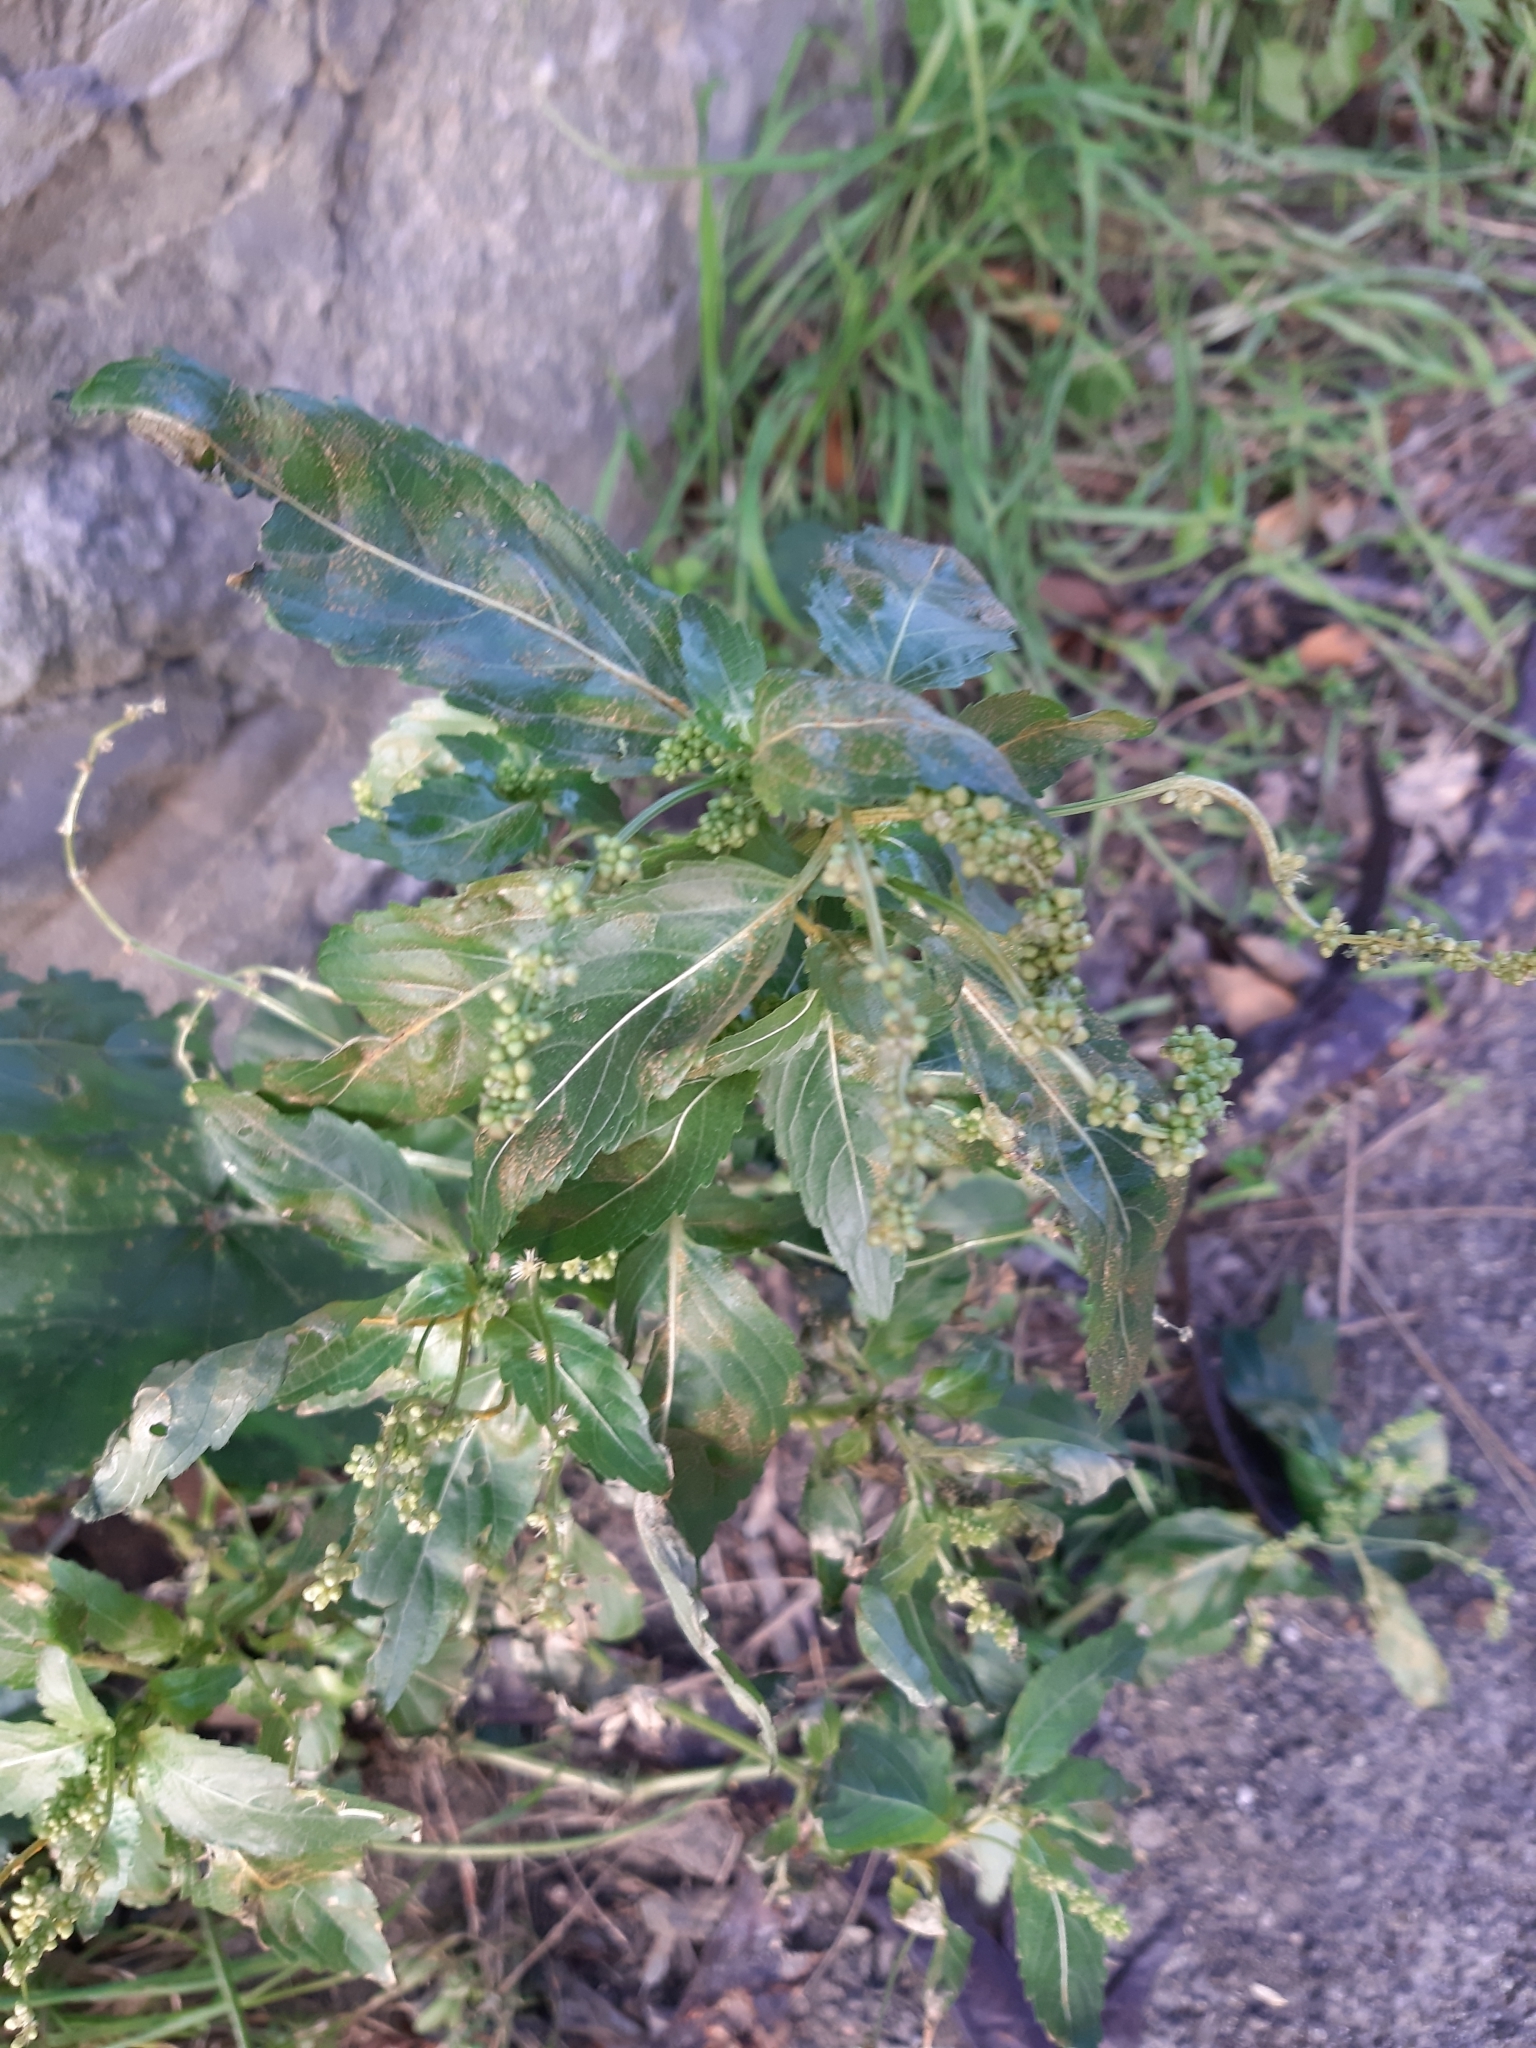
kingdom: Plantae
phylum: Tracheophyta
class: Magnoliopsida
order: Malpighiales
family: Euphorbiaceae
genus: Mercurialis
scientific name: Mercurialis annua
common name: Annual mercury
